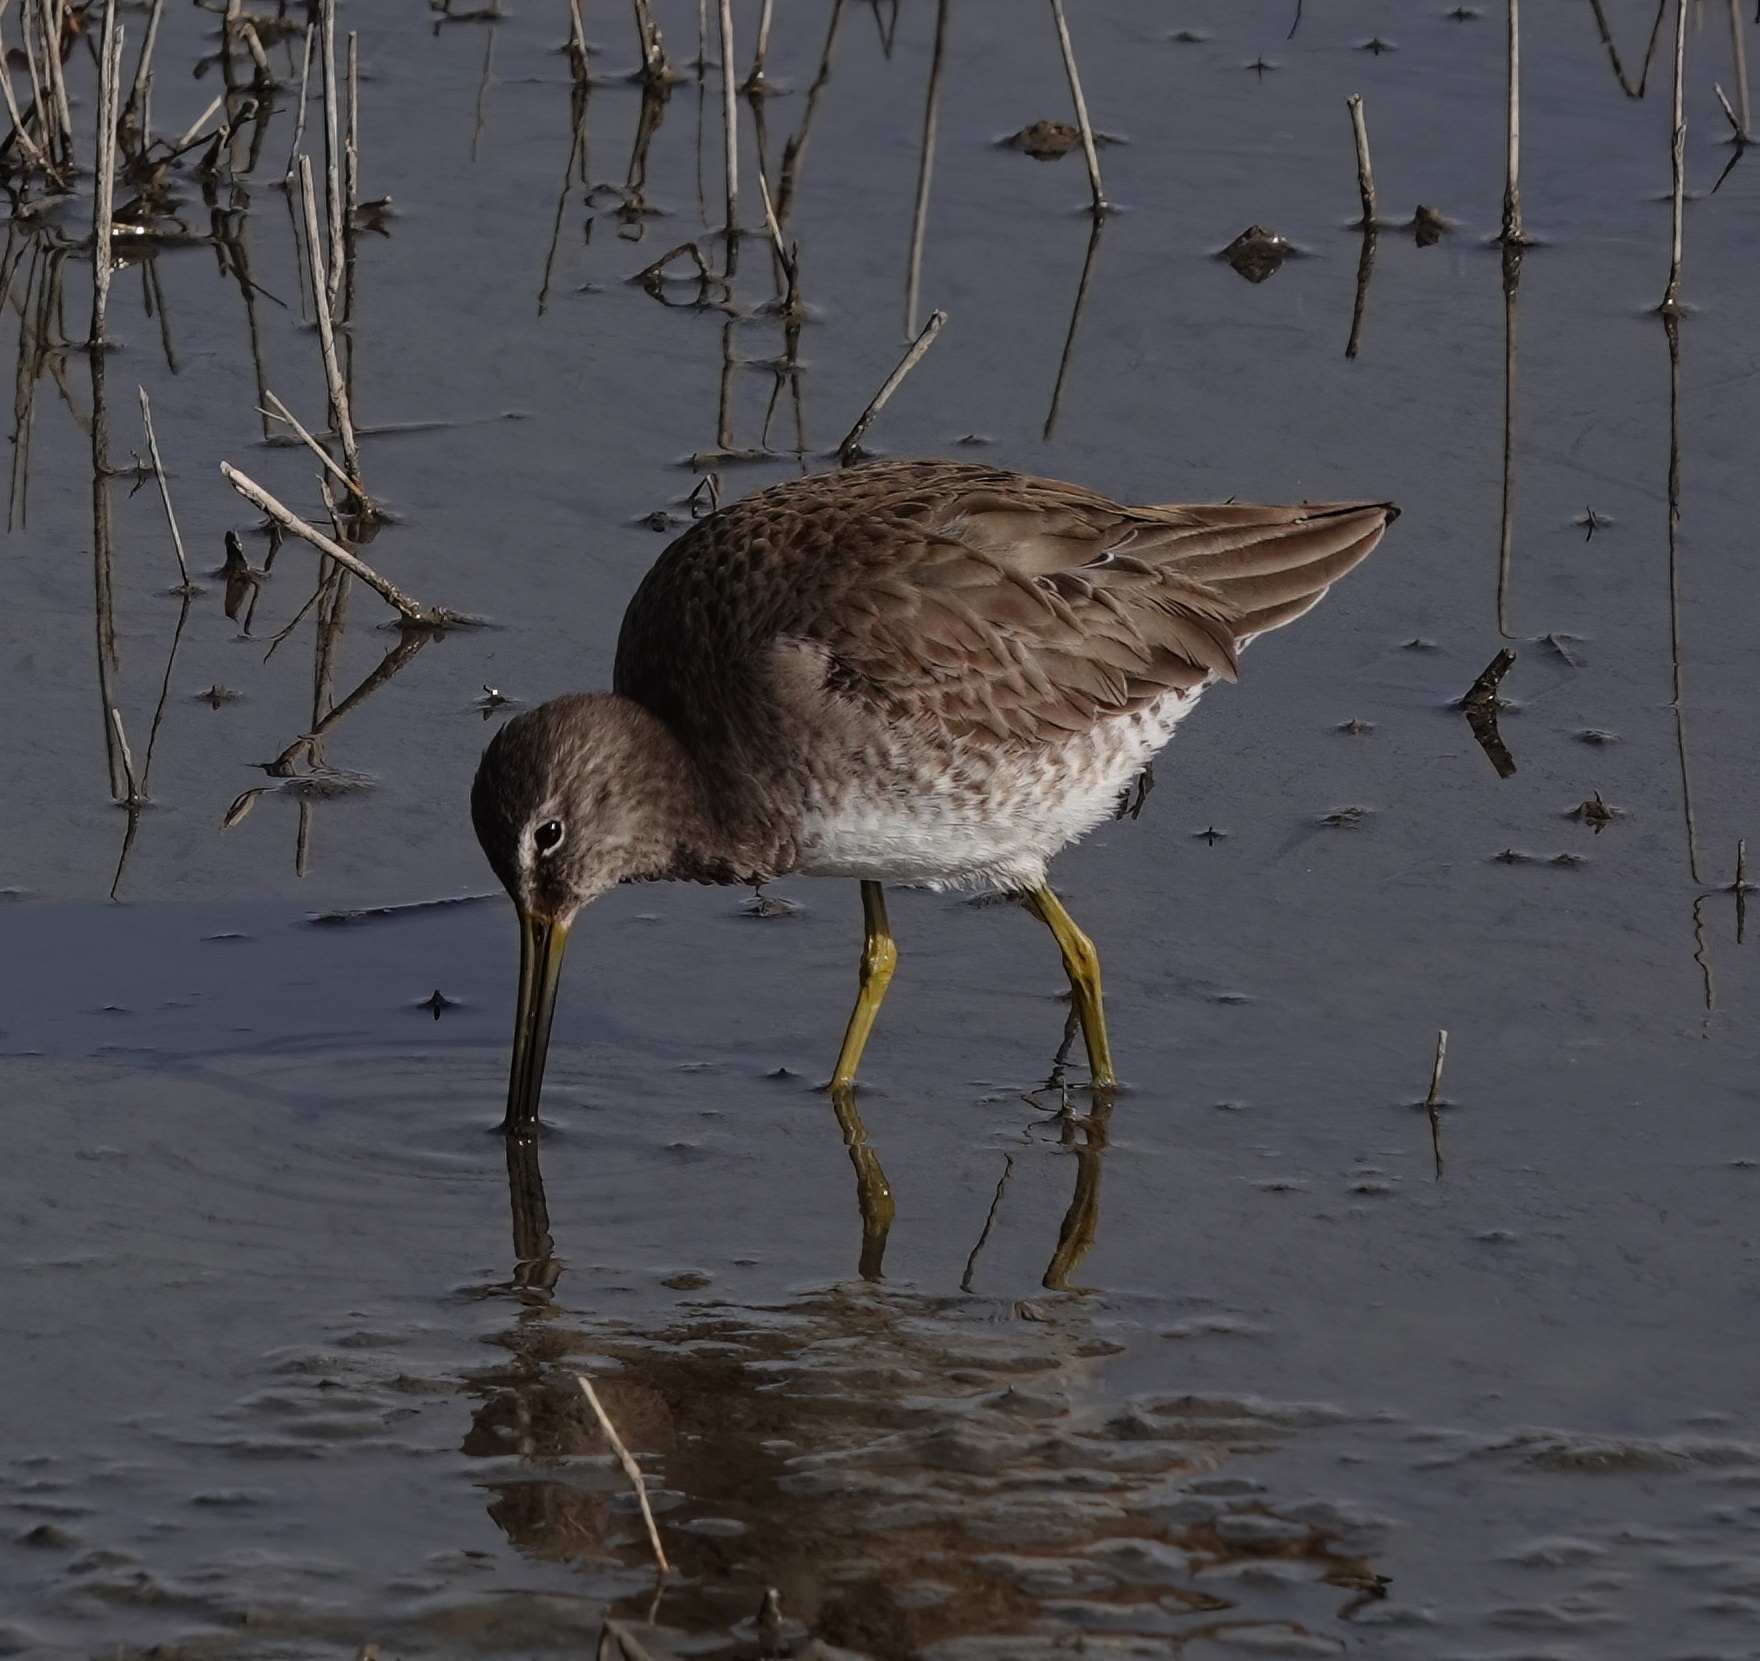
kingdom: Animalia
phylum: Chordata
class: Aves
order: Charadriiformes
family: Scolopacidae
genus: Limnodromus
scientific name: Limnodromus scolopaceus
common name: Long-billed dowitcher
